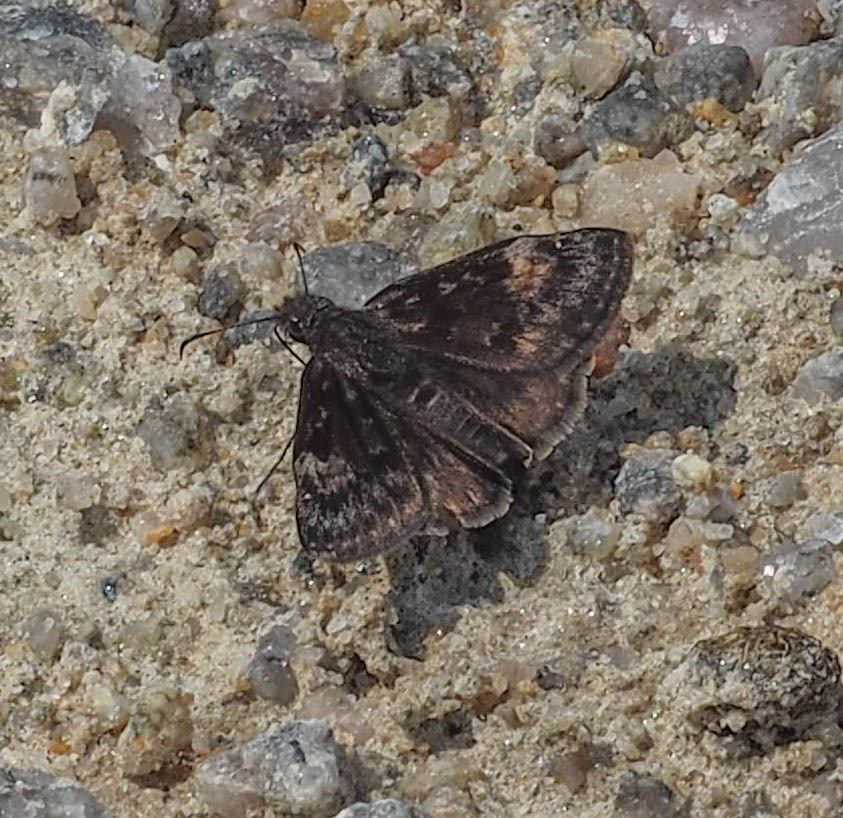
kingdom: Animalia
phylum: Arthropoda
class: Insecta
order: Lepidoptera
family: Hesperiidae
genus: Erynnis
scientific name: Erynnis baptisiae
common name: Wild indigo duskywing
